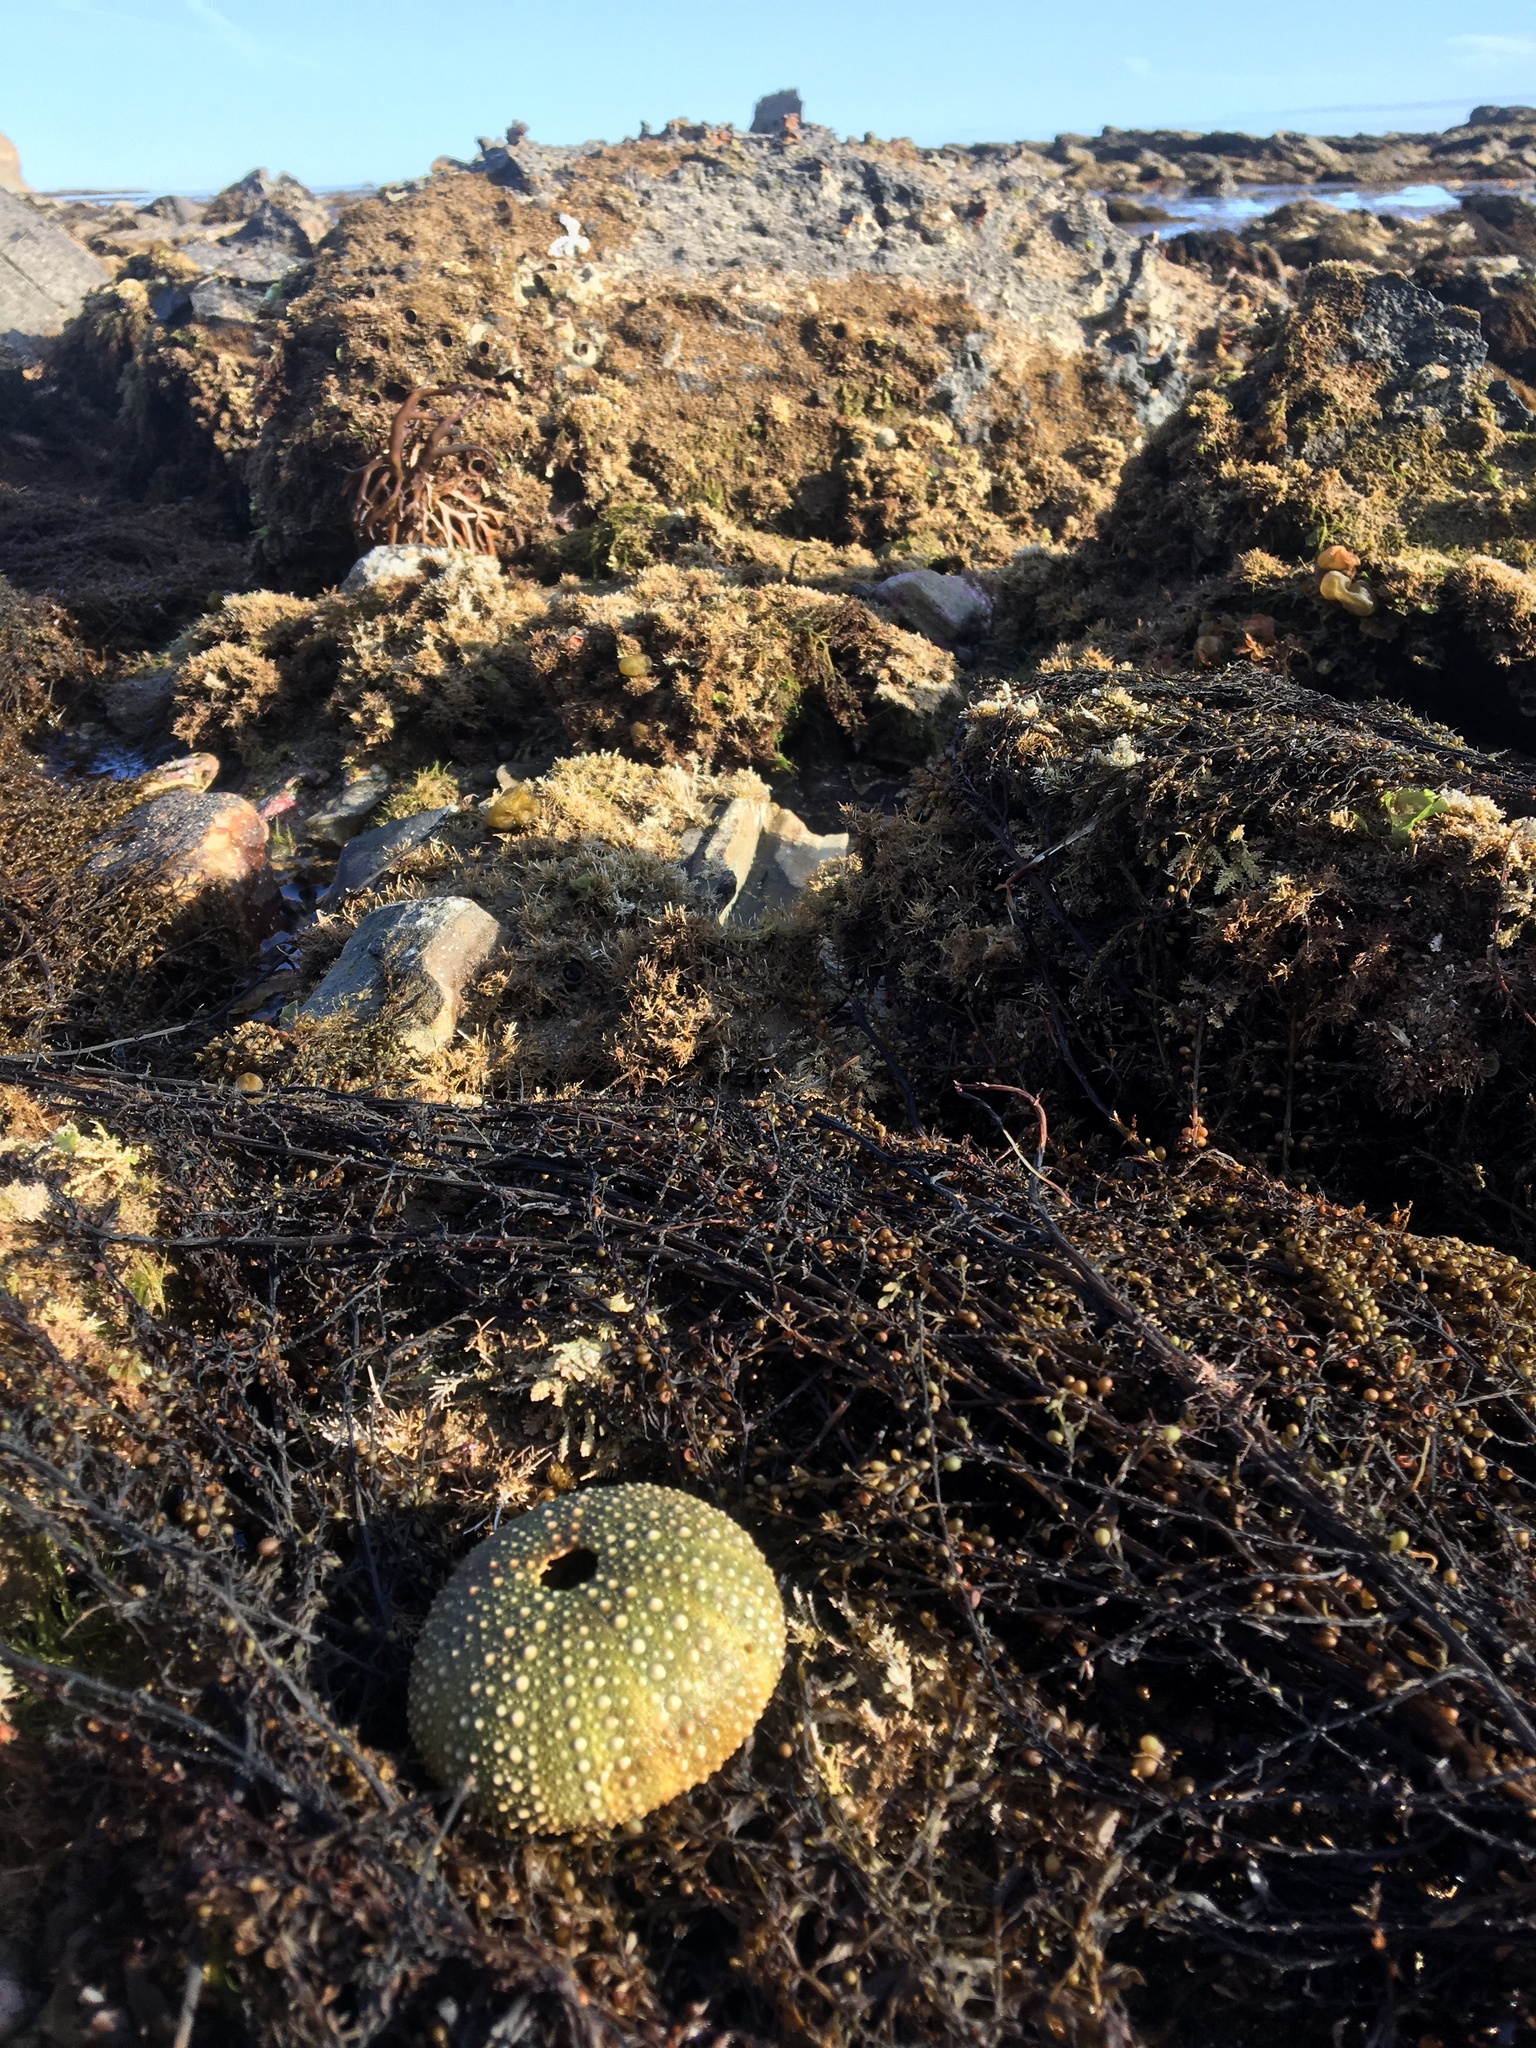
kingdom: Animalia
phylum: Echinodermata
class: Echinoidea
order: Camarodonta
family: Strongylocentrotidae
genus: Strongylocentrotus
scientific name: Strongylocentrotus purpuratus
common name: Purple sea urchin
